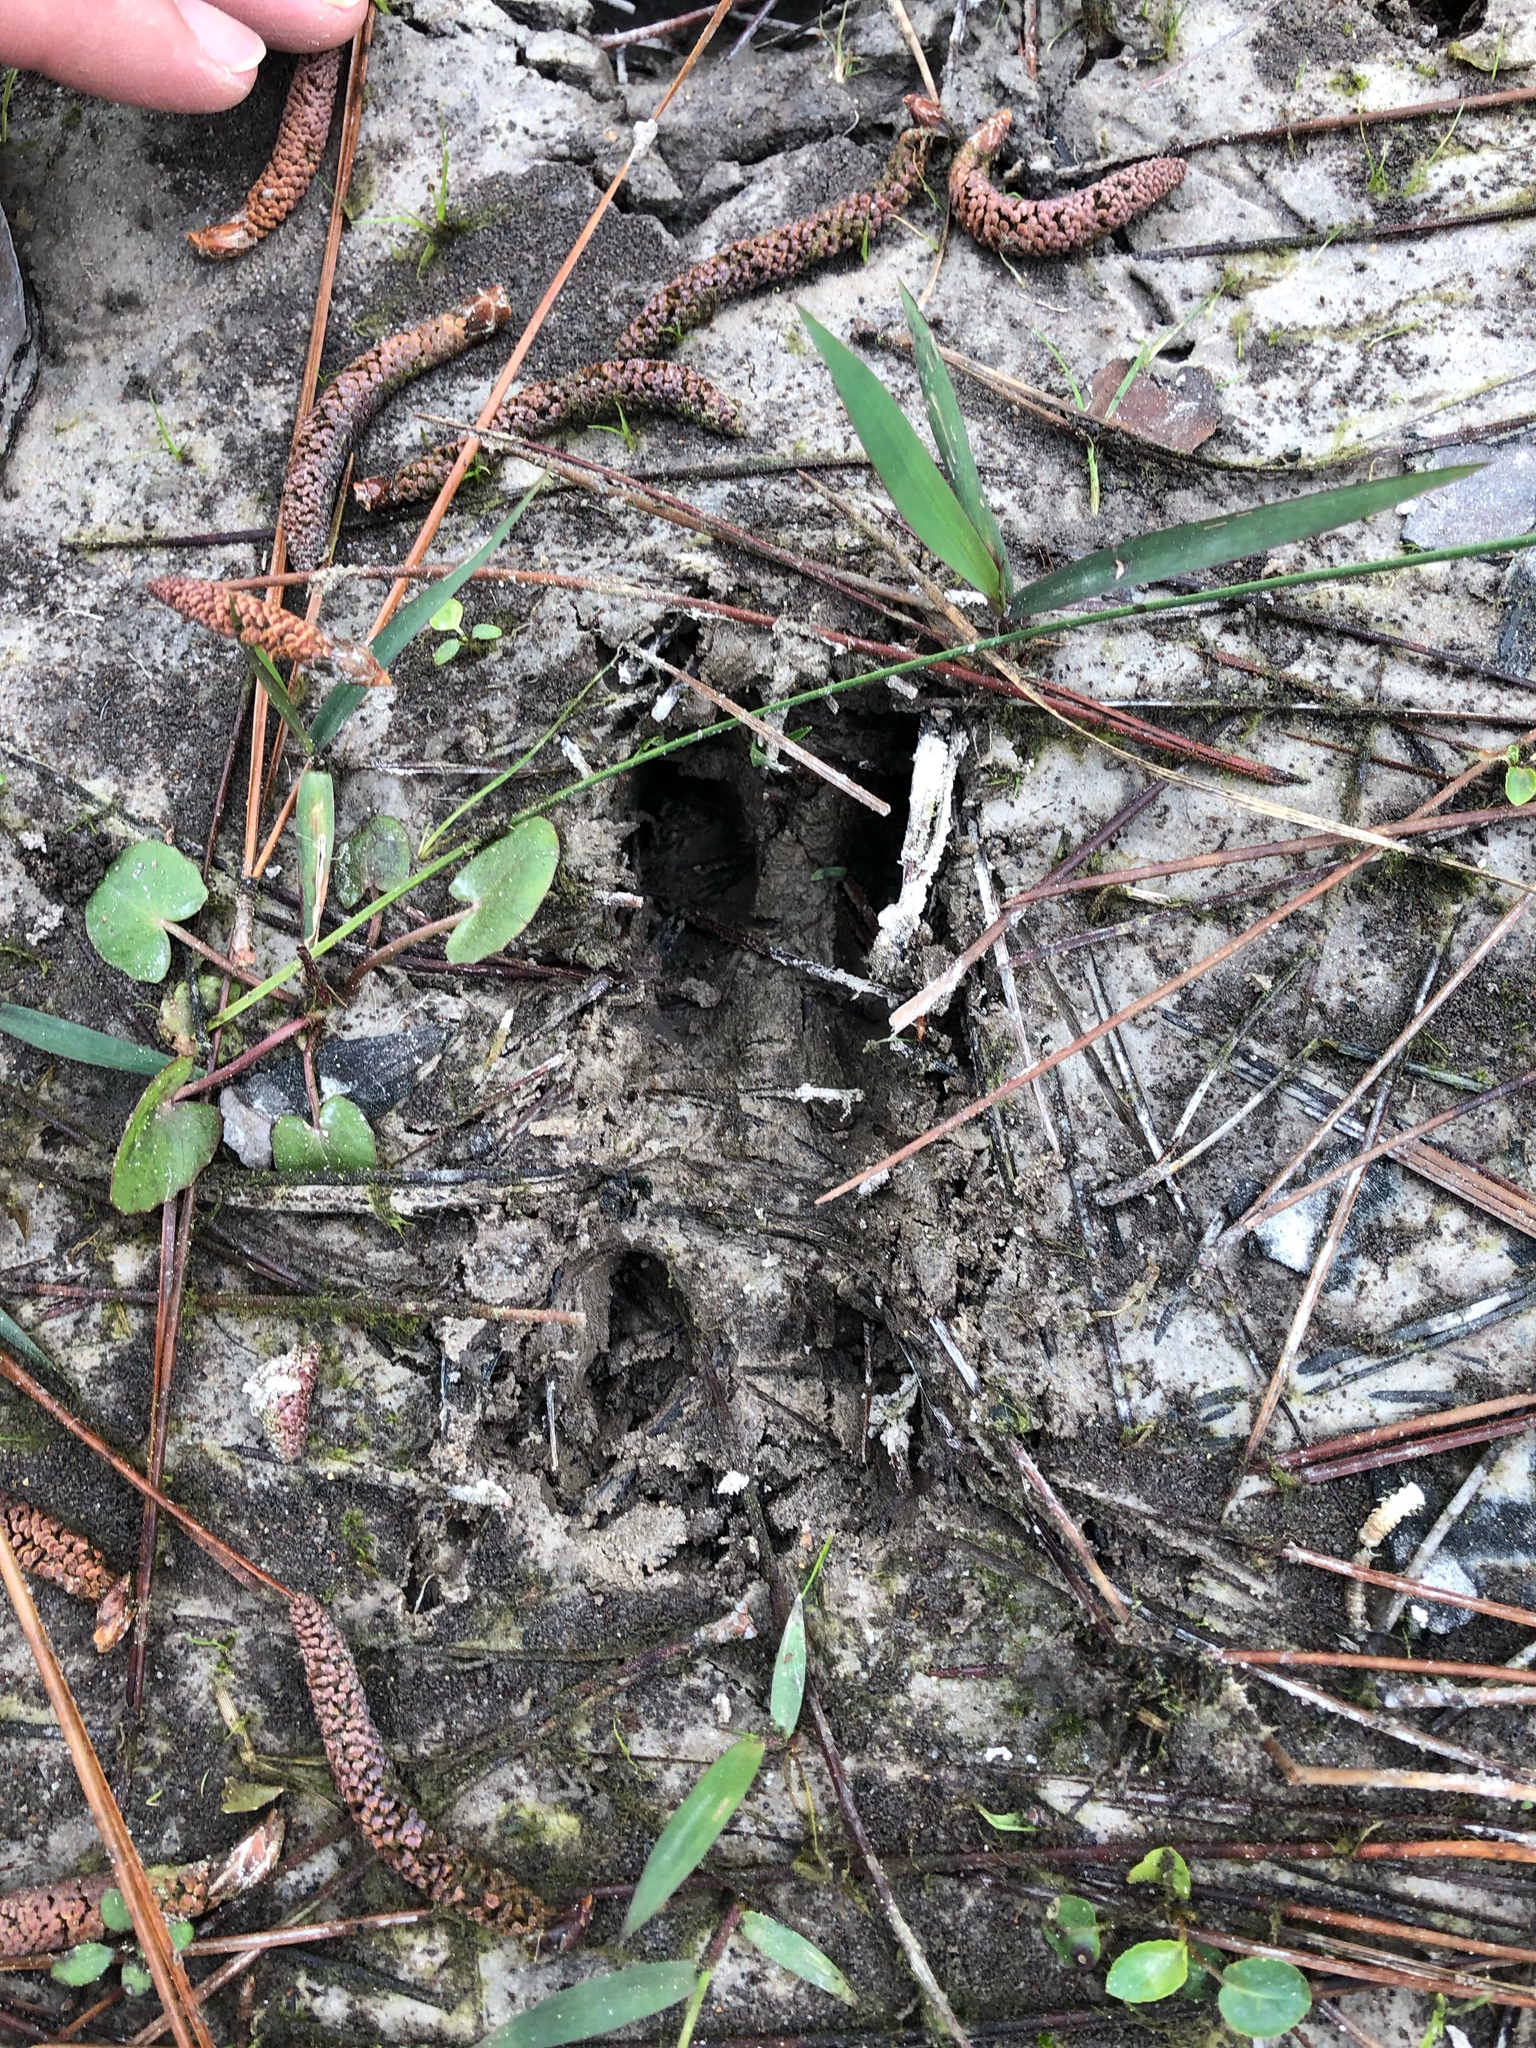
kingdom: Animalia
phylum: Chordata
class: Mammalia
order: Artiodactyla
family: Cervidae
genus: Odocoileus
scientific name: Odocoileus virginianus
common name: White-tailed deer
